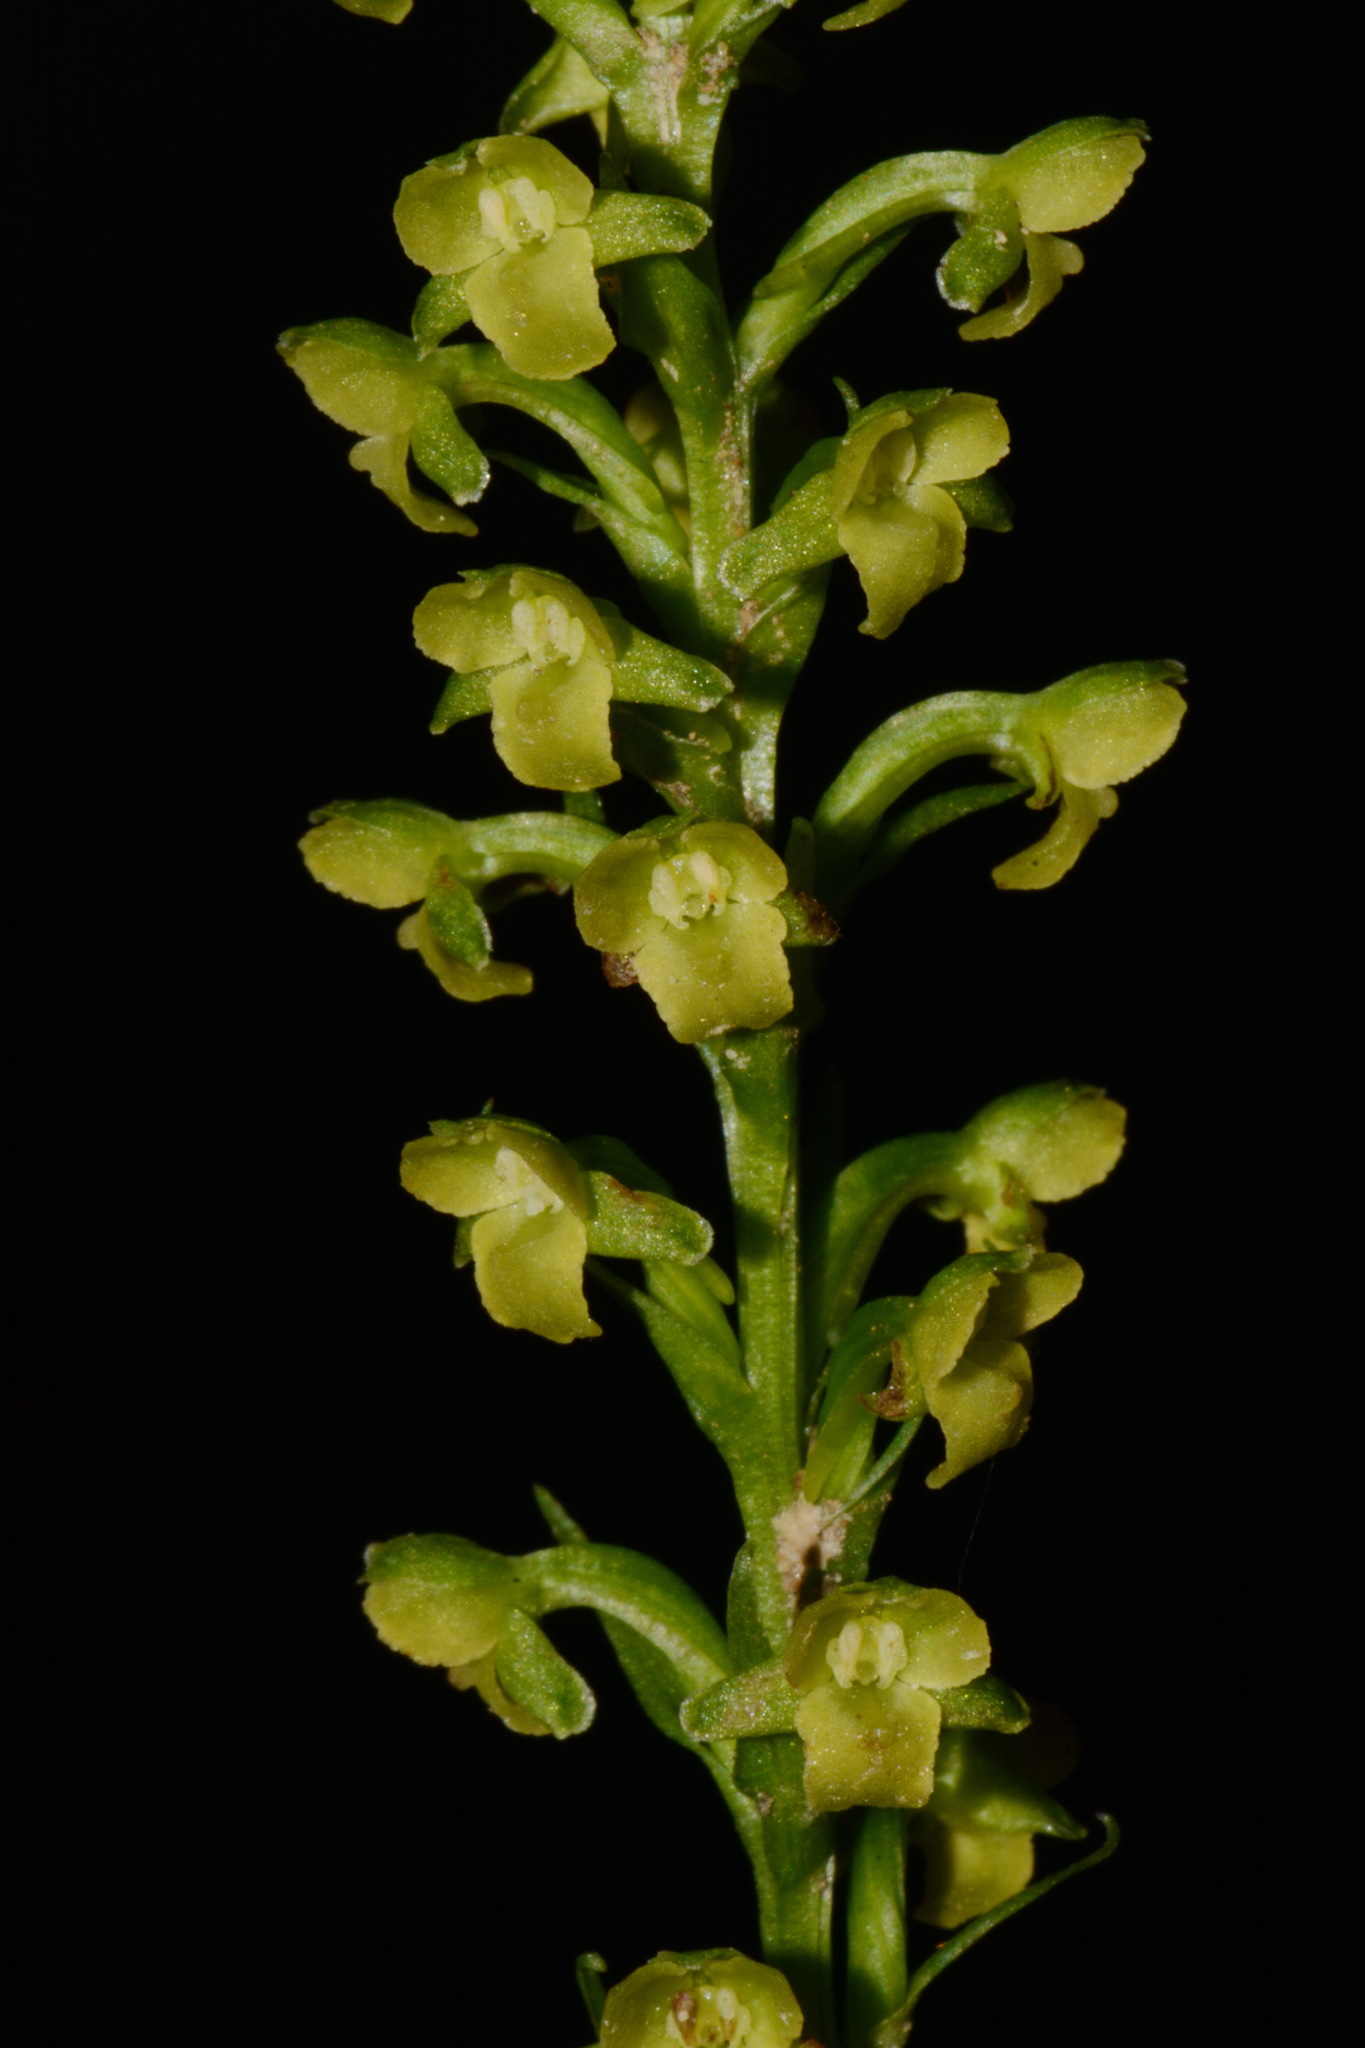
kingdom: Plantae
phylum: Tracheophyta
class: Liliopsida
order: Asparagales
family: Orchidaceae
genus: Platanthera
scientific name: Platanthera flava
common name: Gypsy-spikes
